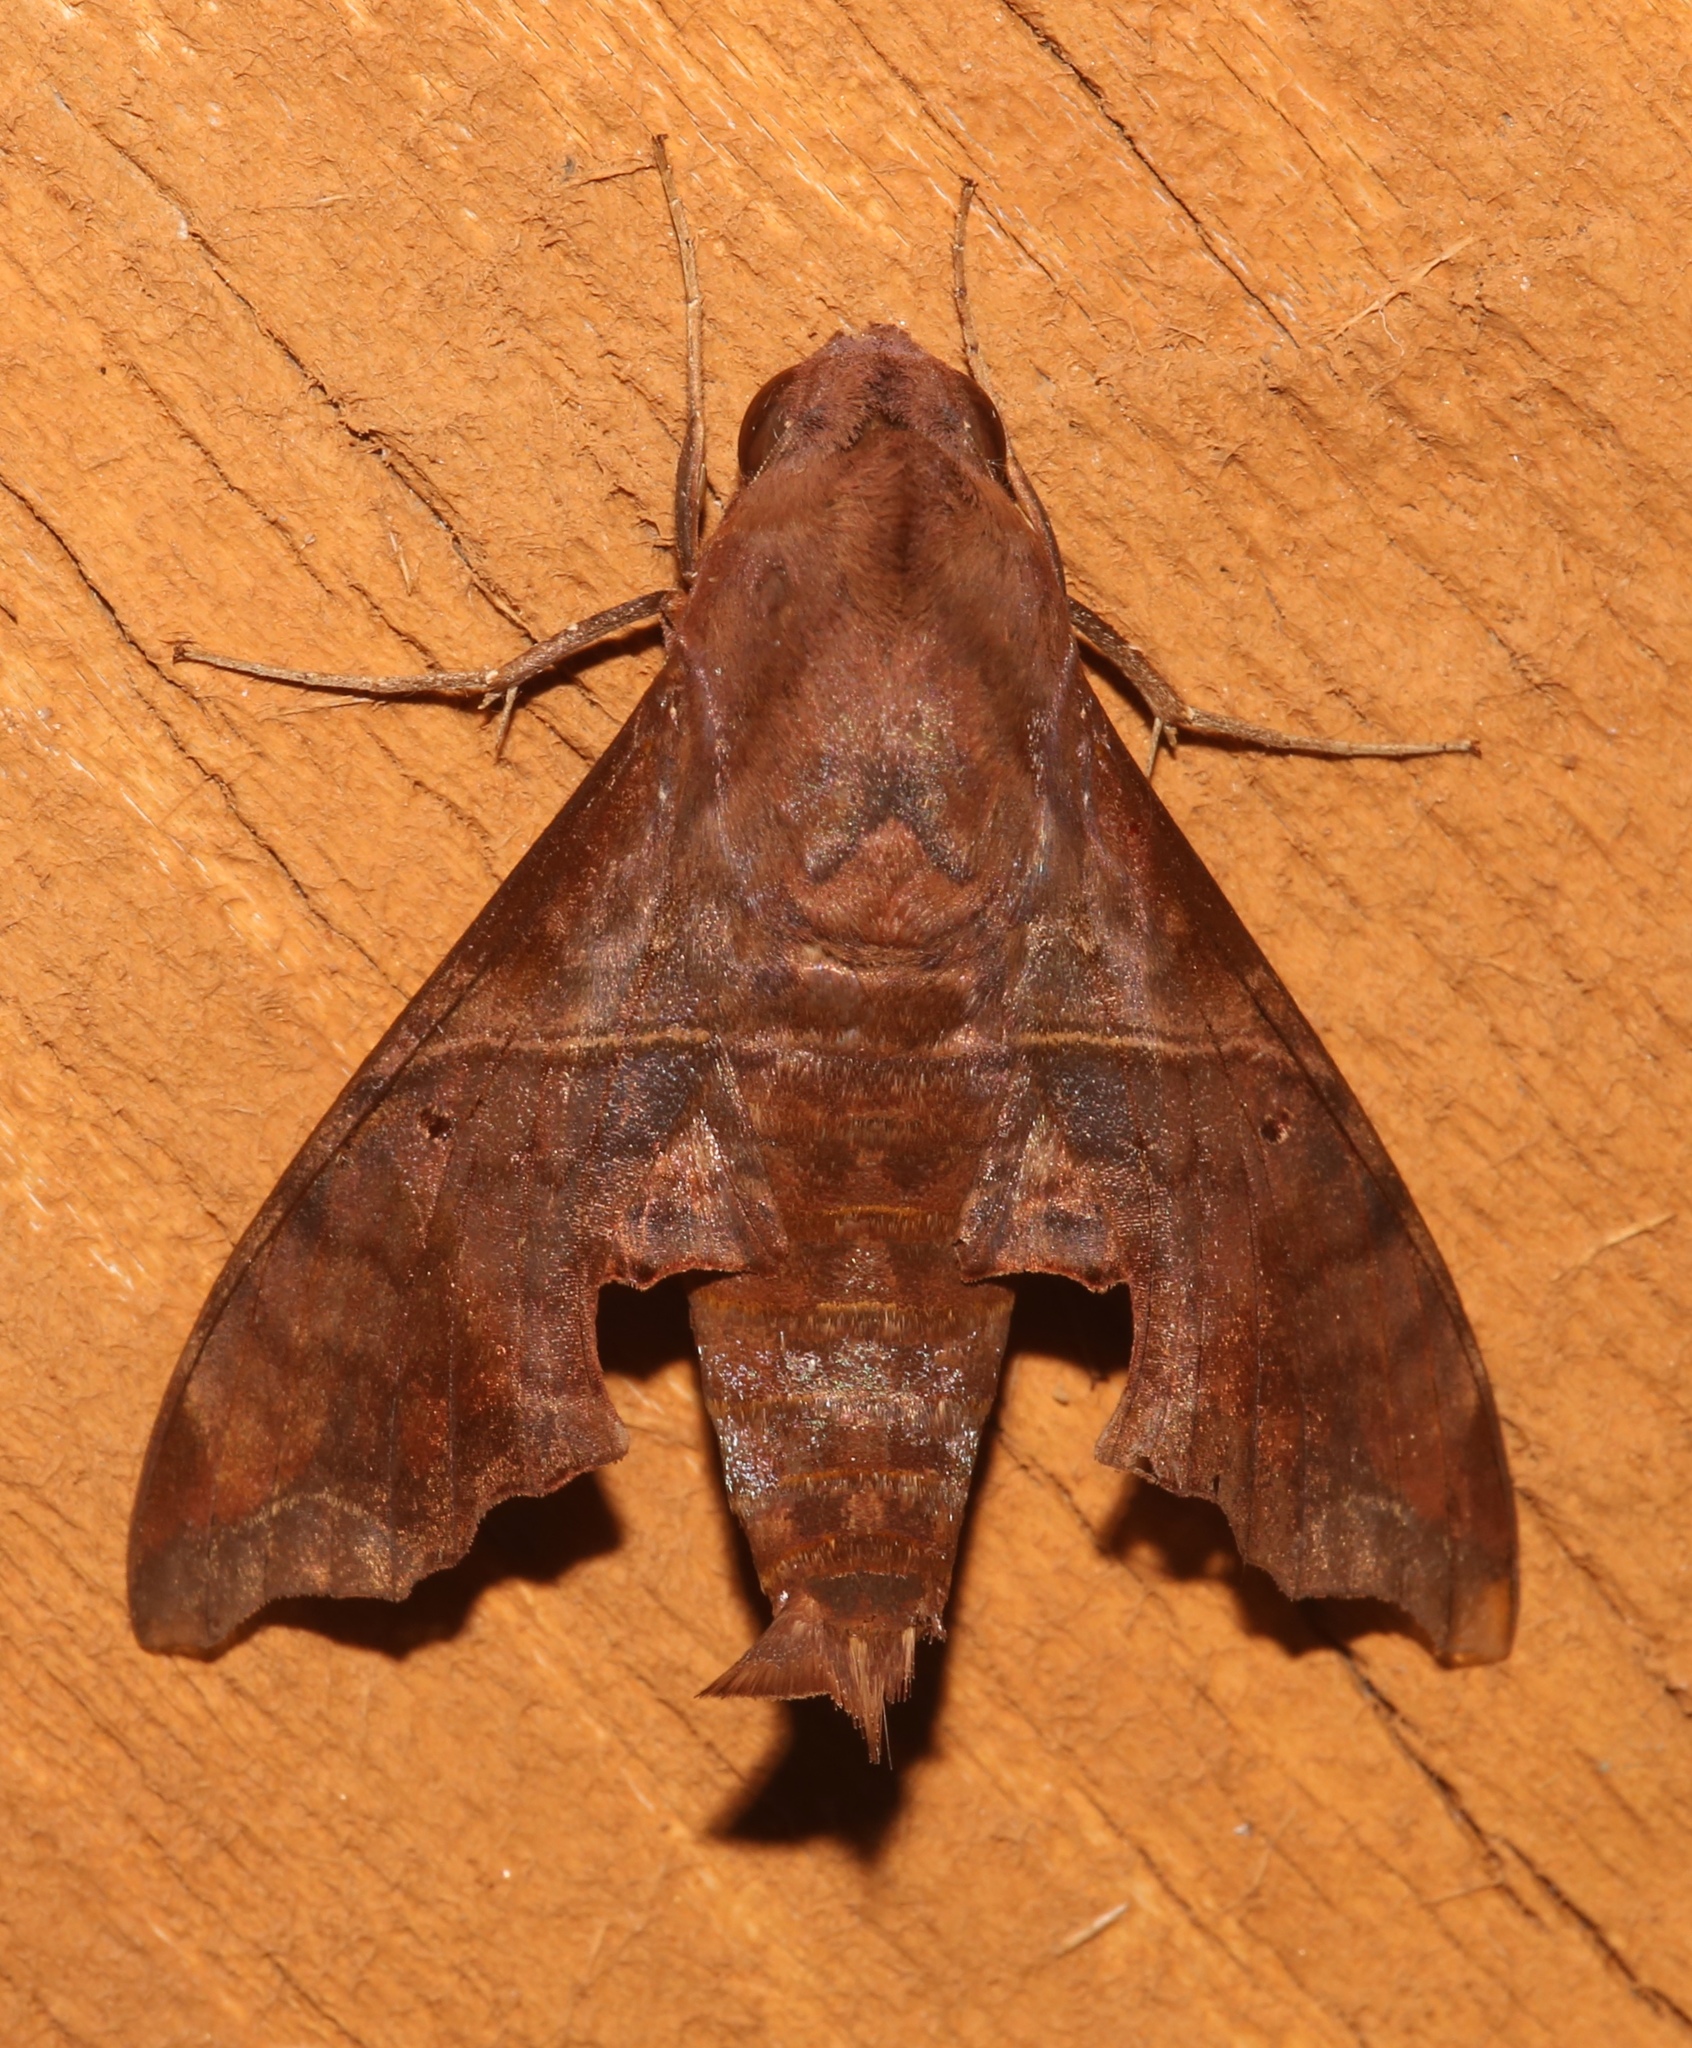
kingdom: Animalia
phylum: Arthropoda
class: Insecta
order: Lepidoptera
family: Sphingidae
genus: Enyo
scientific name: Enyo lugubris
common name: Mournful sphinx
